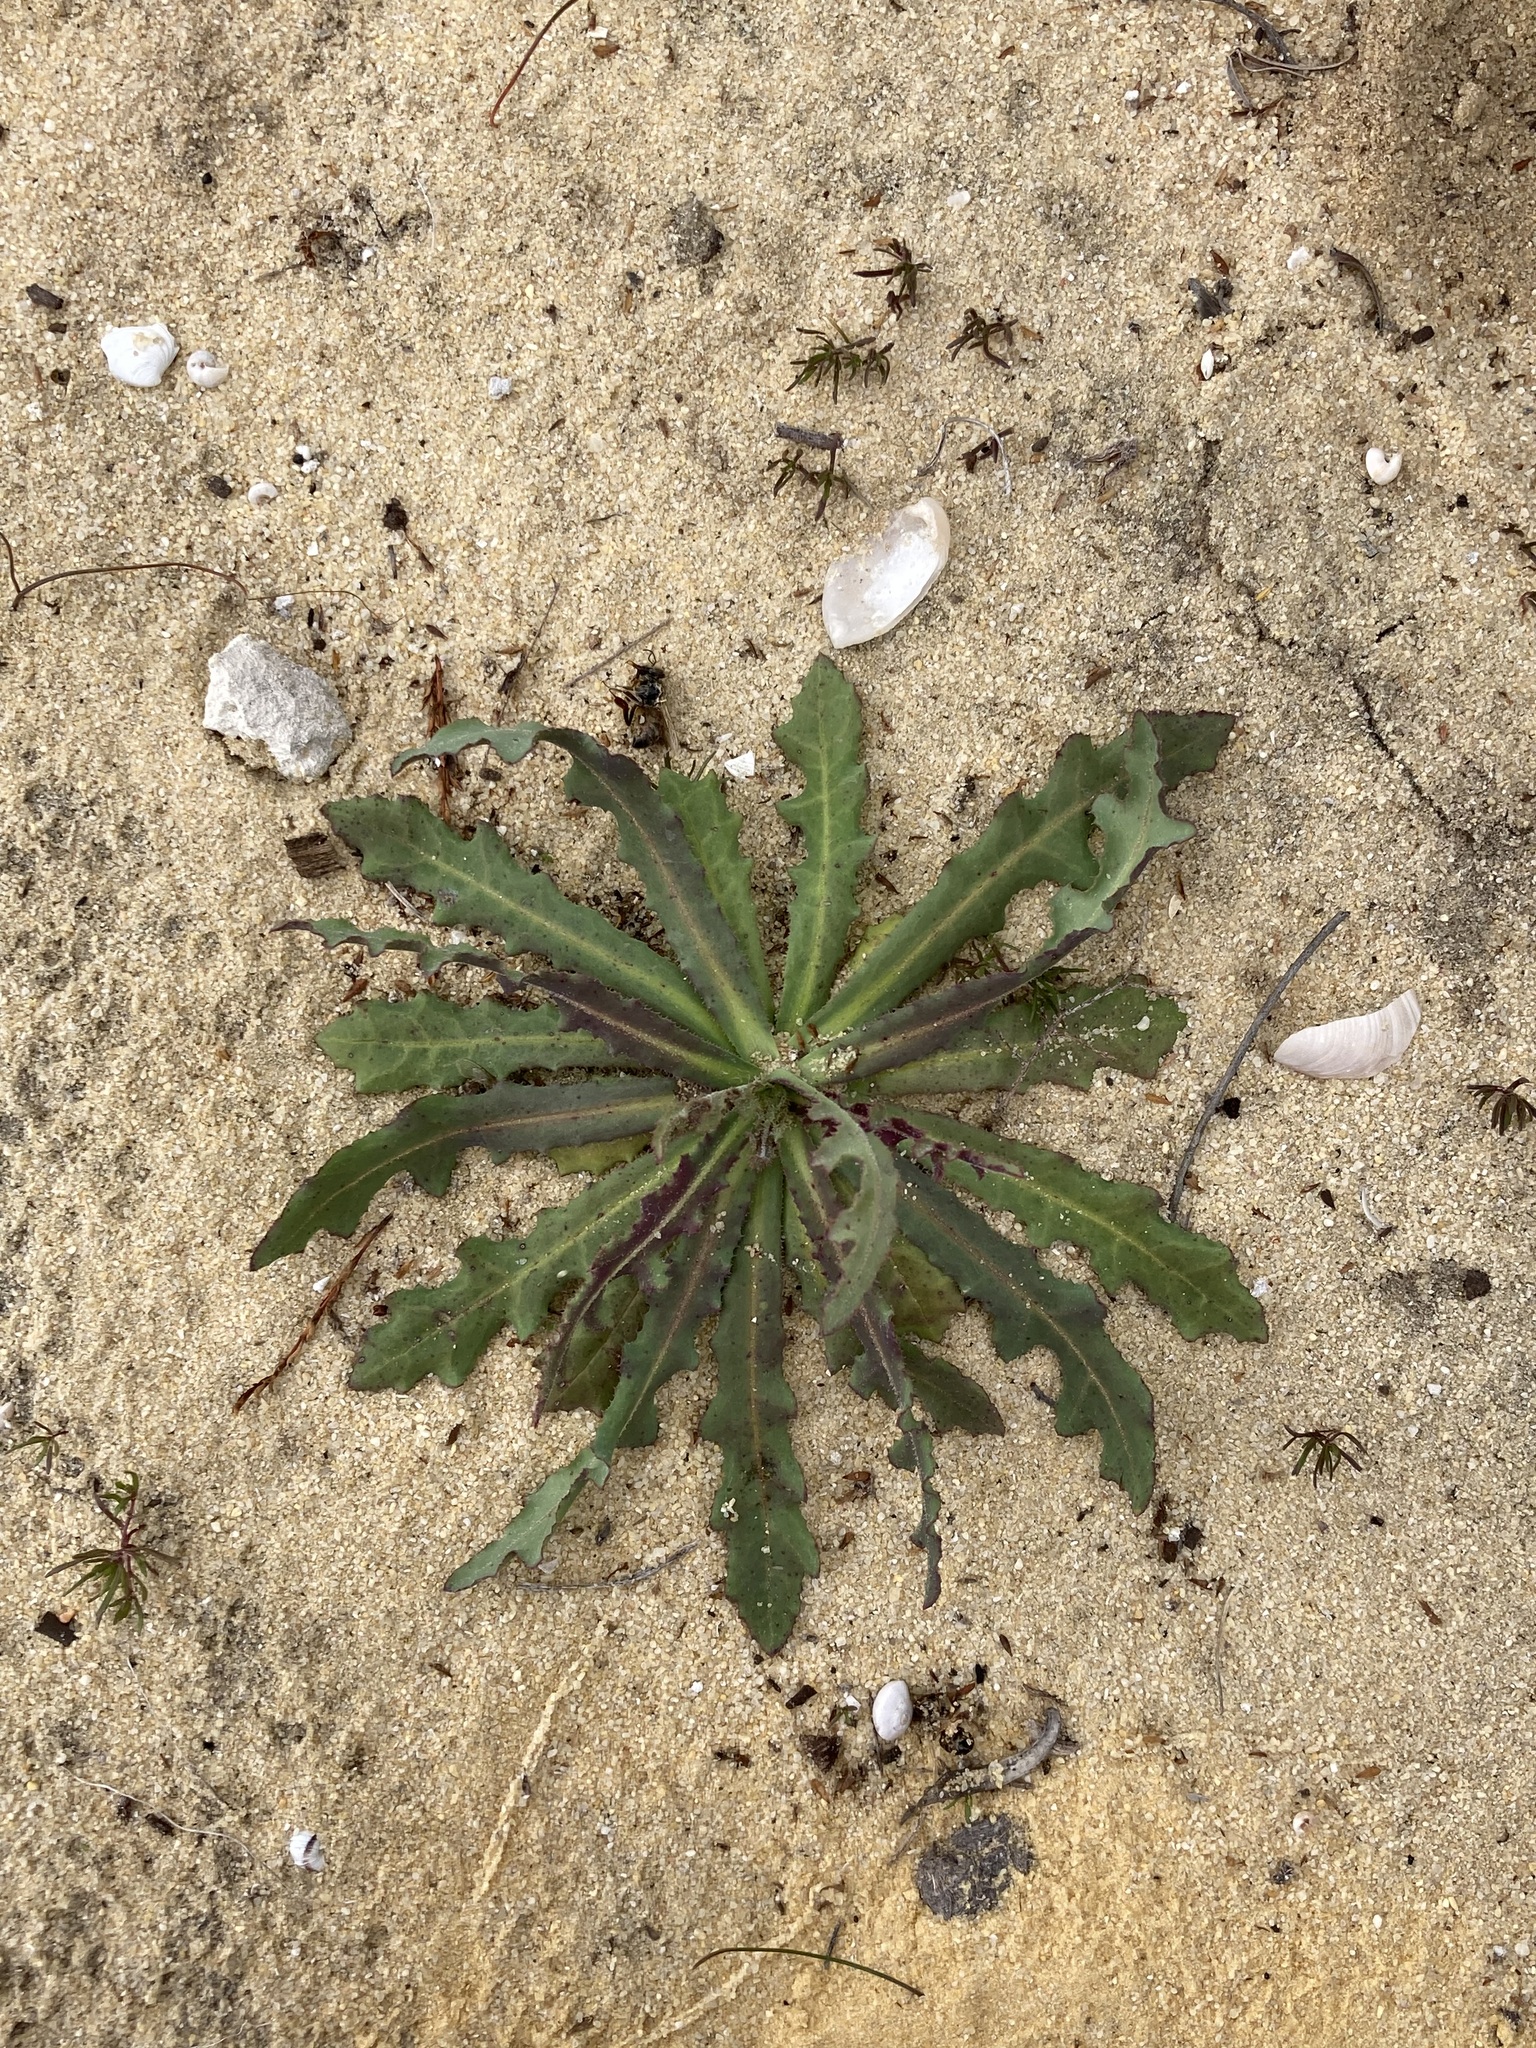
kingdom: Plantae
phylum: Tracheophyta
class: Magnoliopsida
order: Asterales
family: Asteraceae
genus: Reichardia
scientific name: Reichardia tingitana
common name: Reichardia
